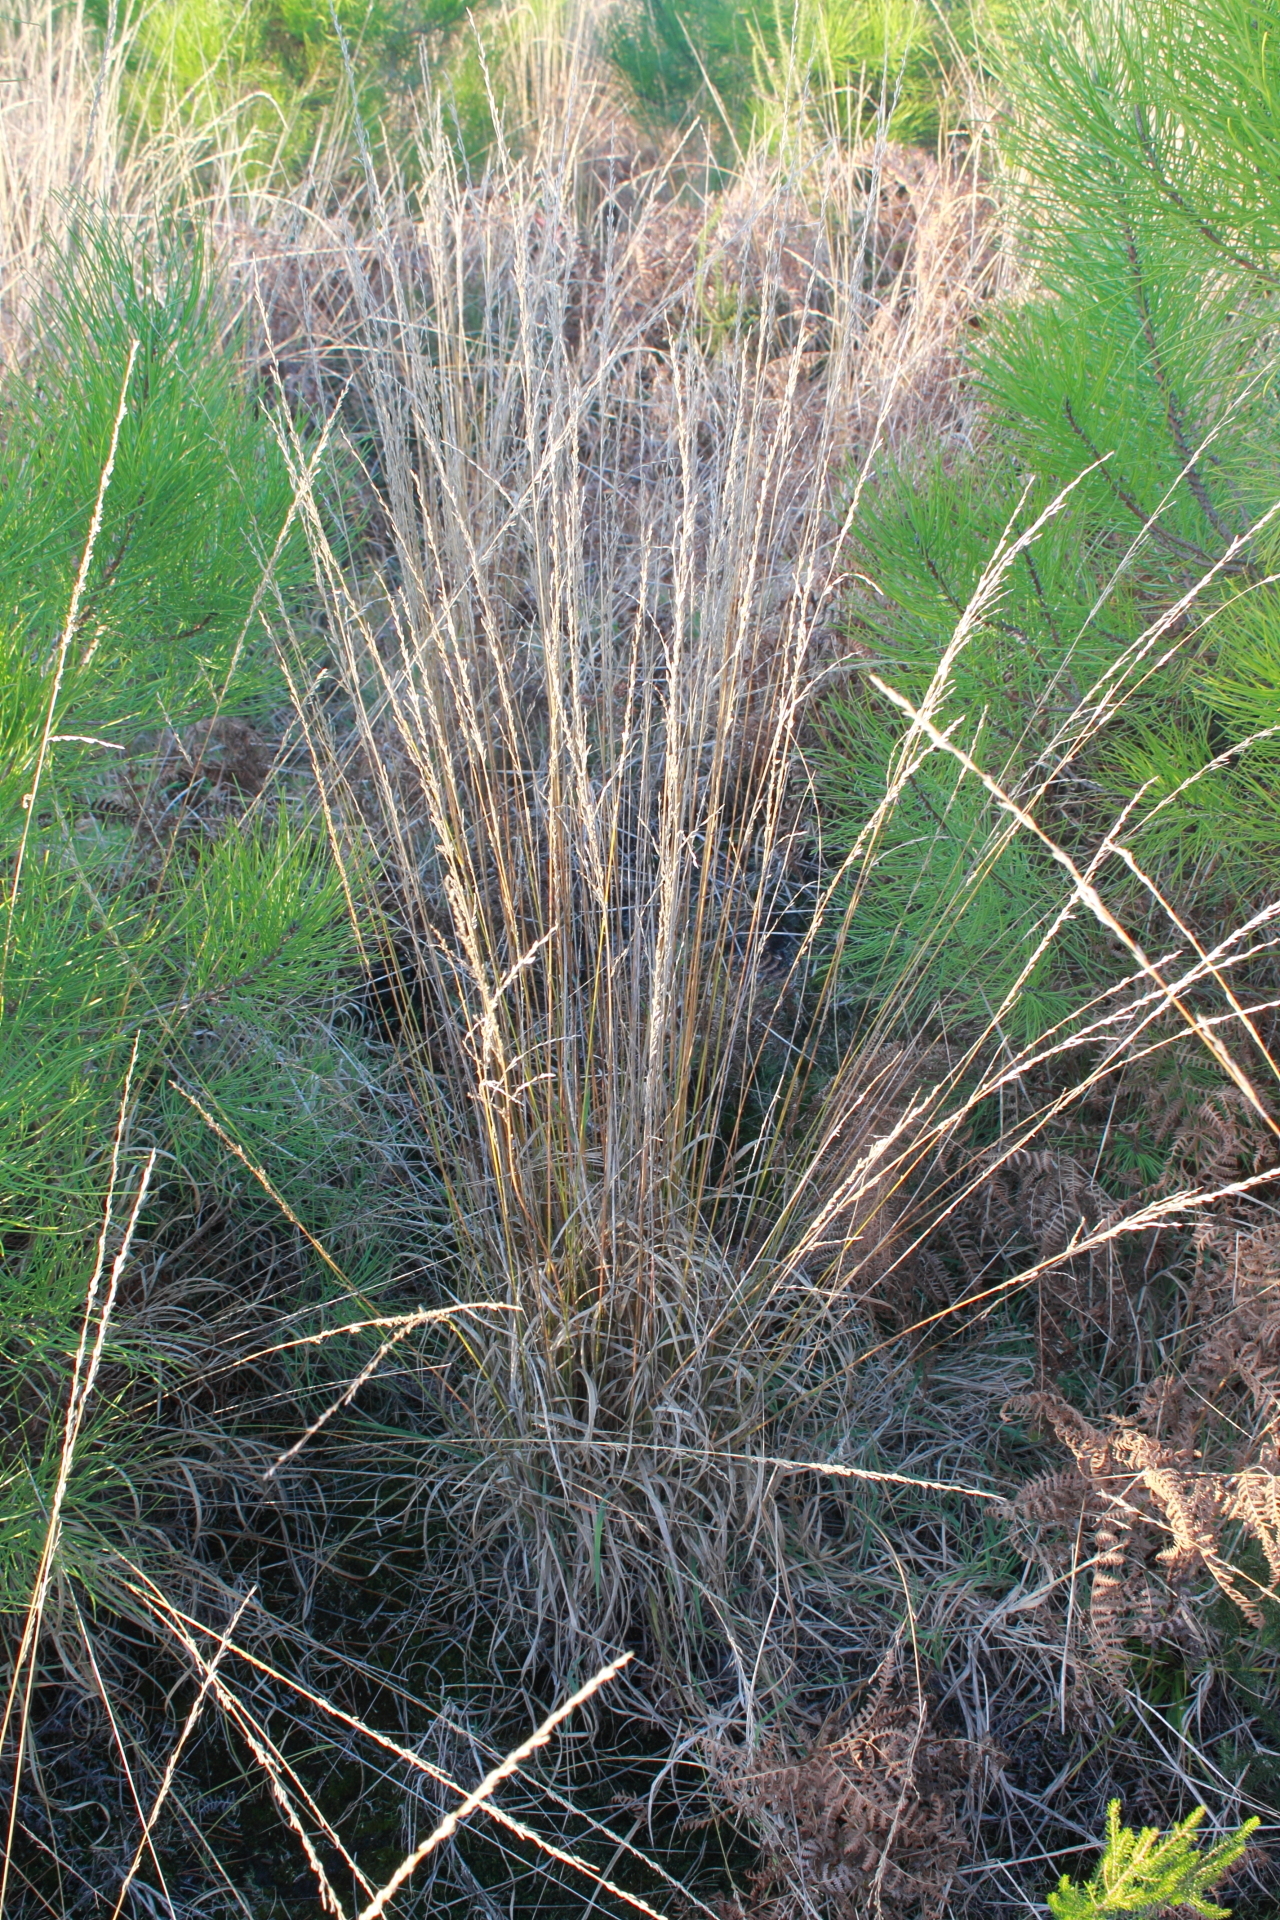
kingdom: Plantae
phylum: Tracheophyta
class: Liliopsida
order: Poales
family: Poaceae
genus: Molinia
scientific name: Molinia caerulea
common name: Purple moor-grass
